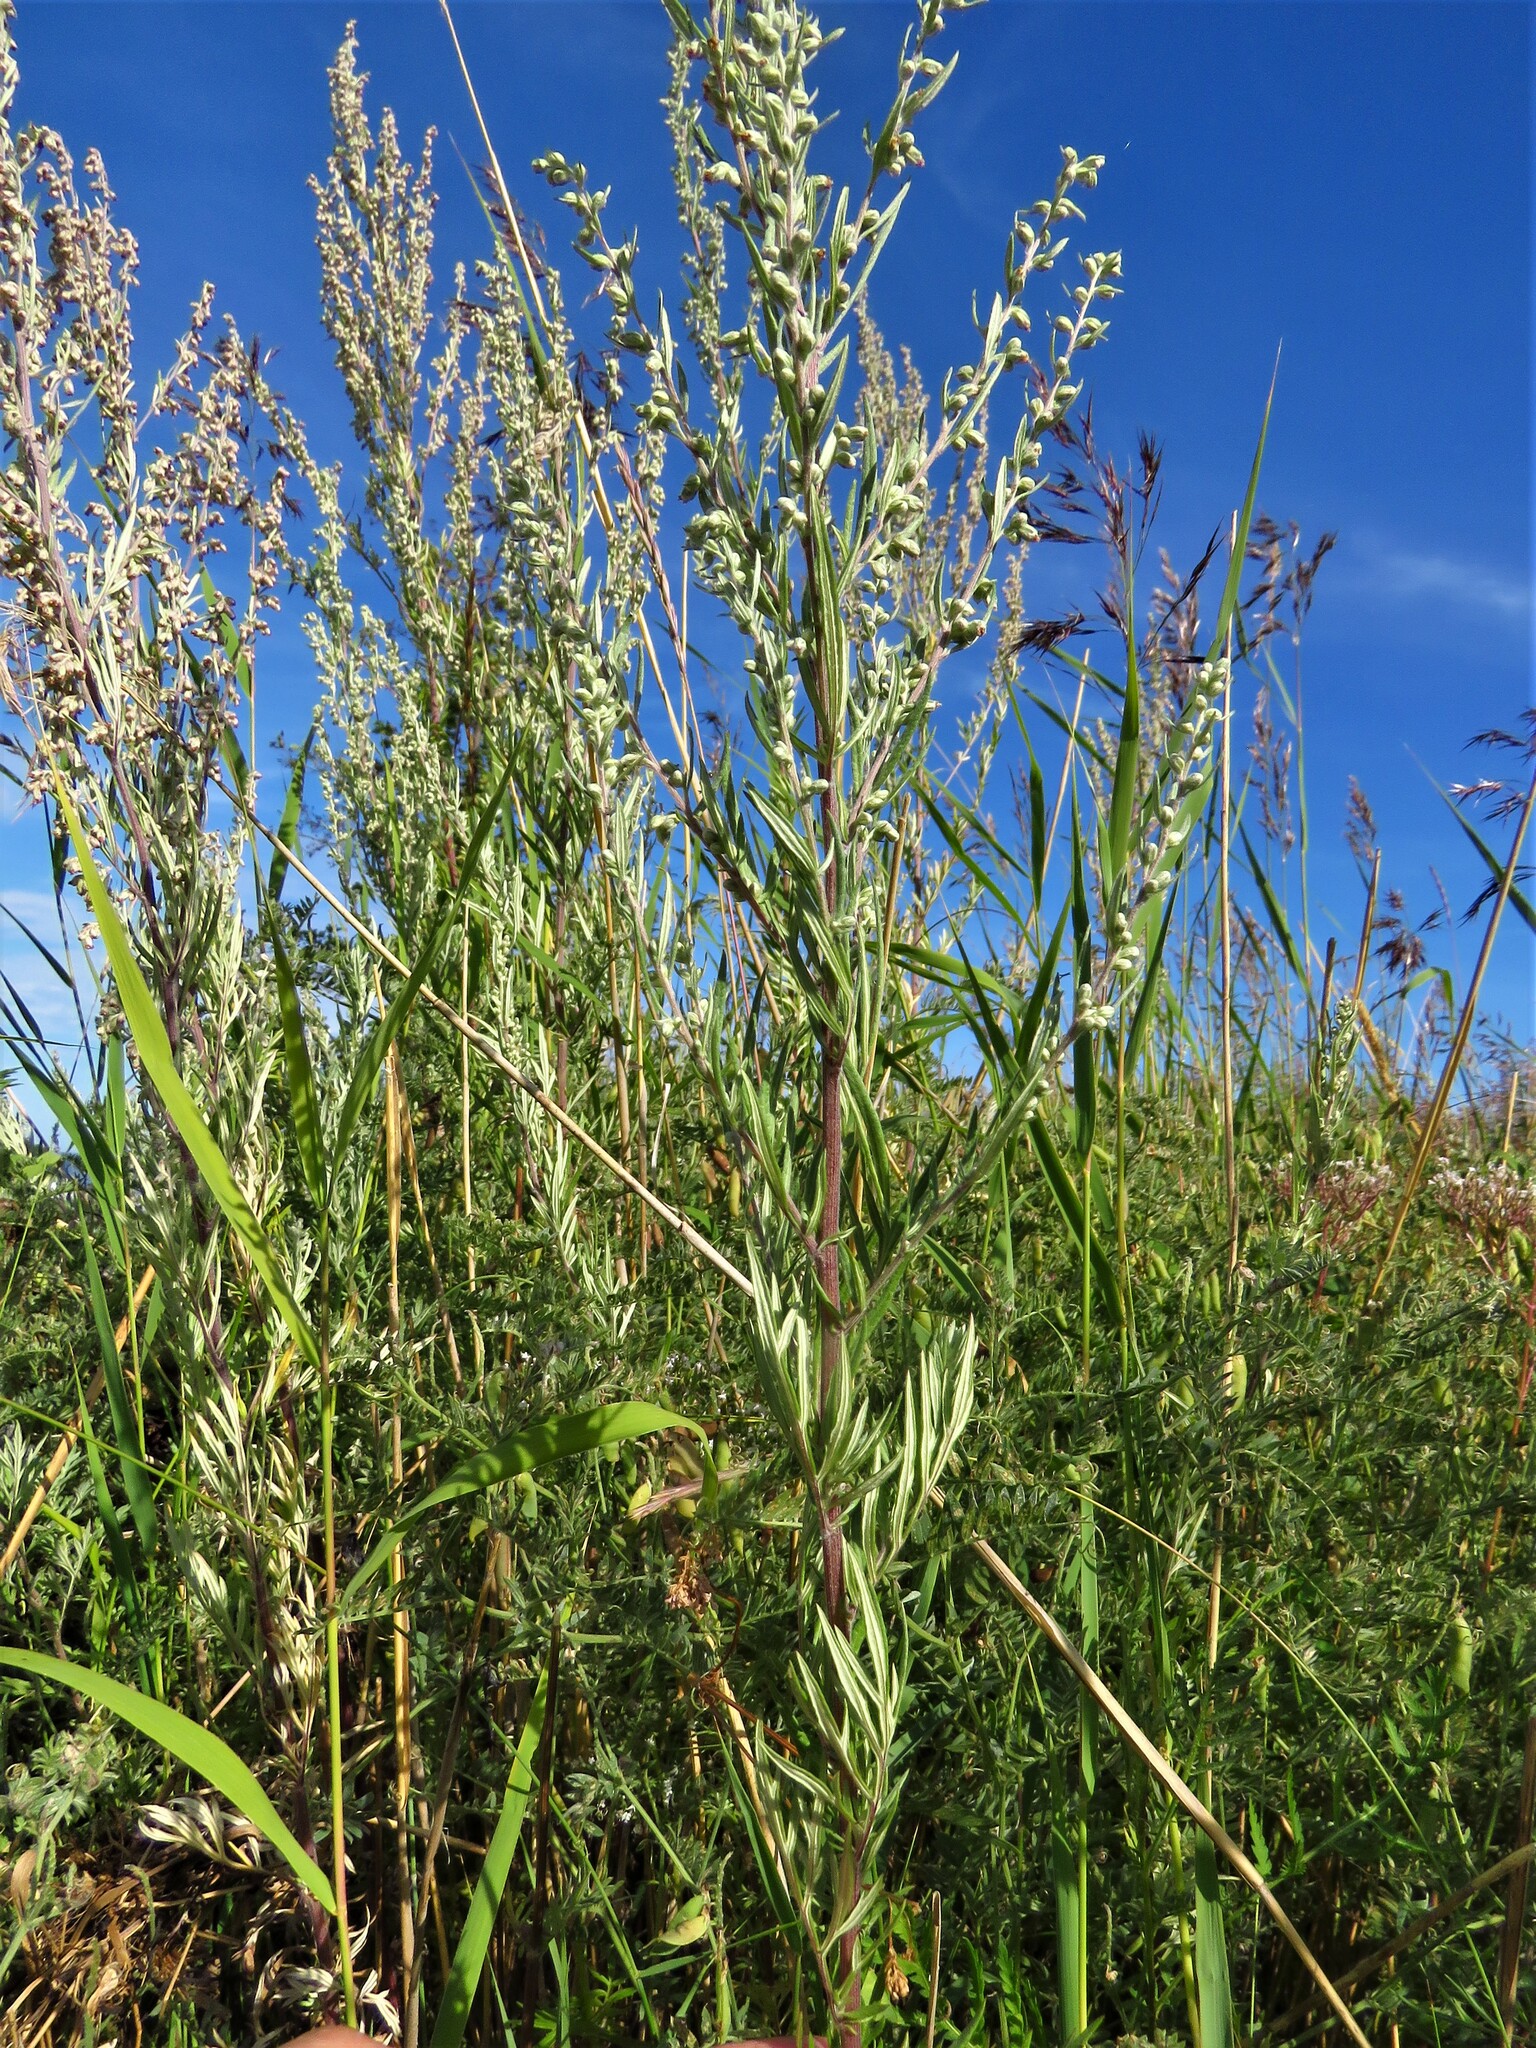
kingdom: Plantae
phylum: Tracheophyta
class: Magnoliopsida
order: Asterales
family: Asteraceae
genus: Artemisia
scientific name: Artemisia vulgaris
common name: Mugwort
